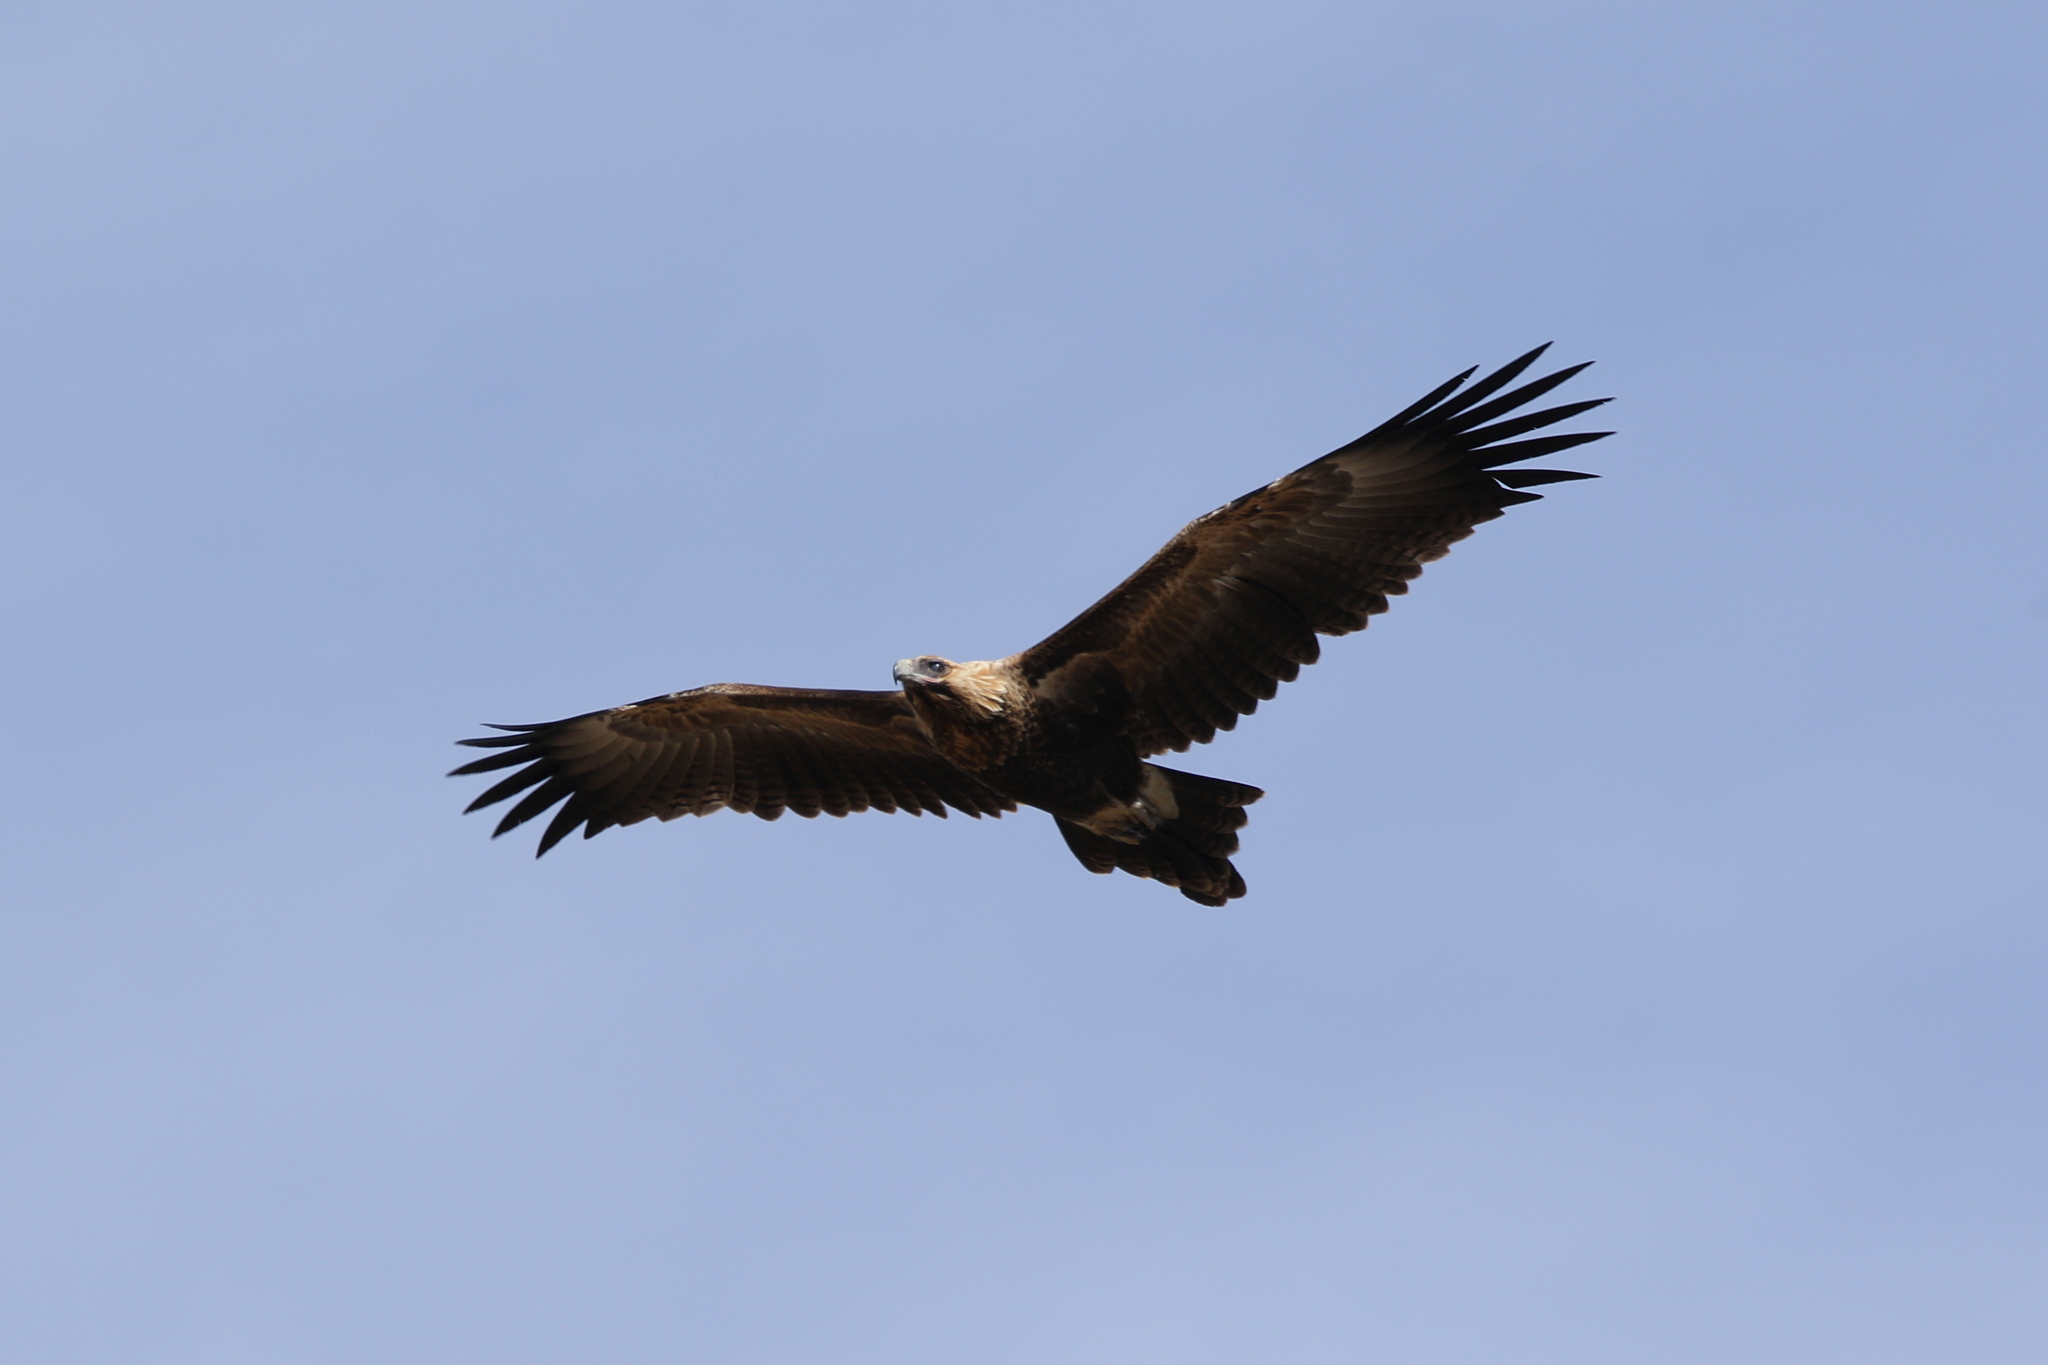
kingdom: Animalia
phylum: Chordata
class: Aves
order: Accipitriformes
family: Accipitridae
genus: Aquila
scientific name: Aquila audax
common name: Wedge-tailed eagle
